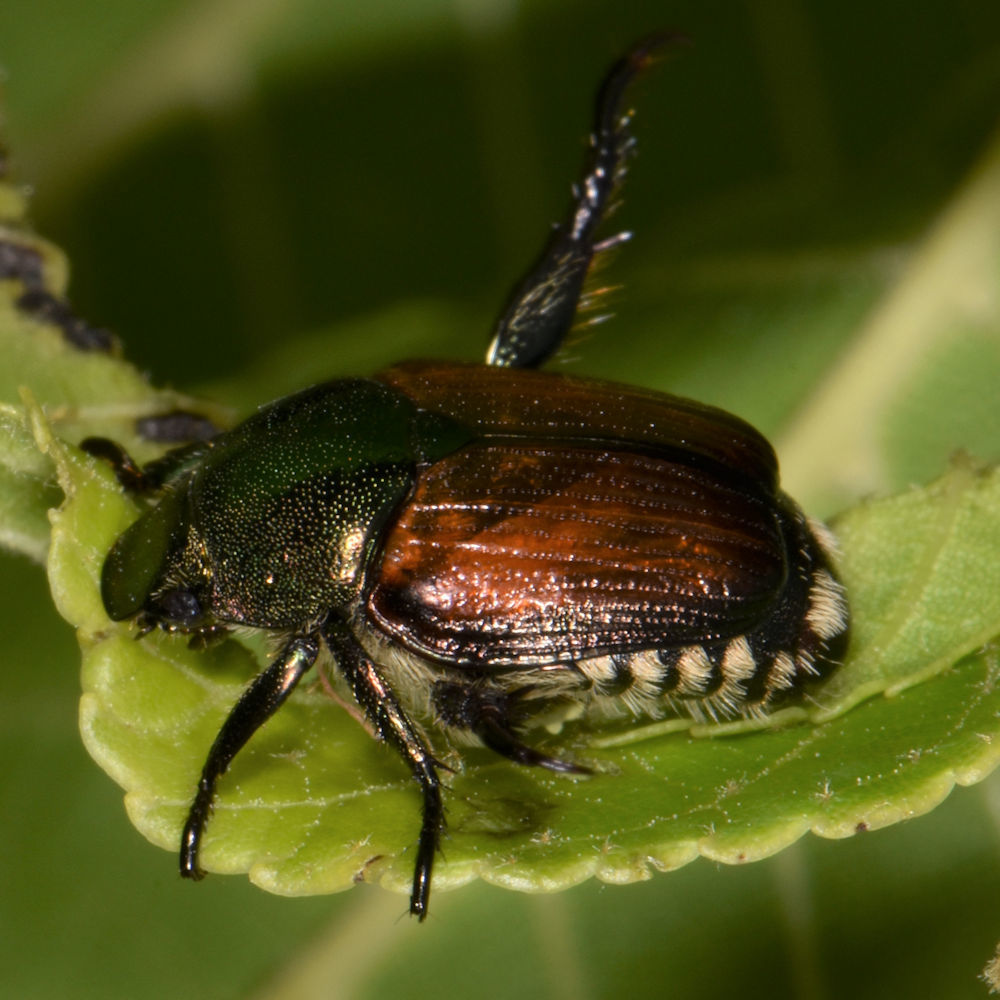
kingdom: Animalia
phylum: Arthropoda
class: Insecta
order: Coleoptera
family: Scarabaeidae
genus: Popillia
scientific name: Popillia japonica
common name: Japanese beetle
